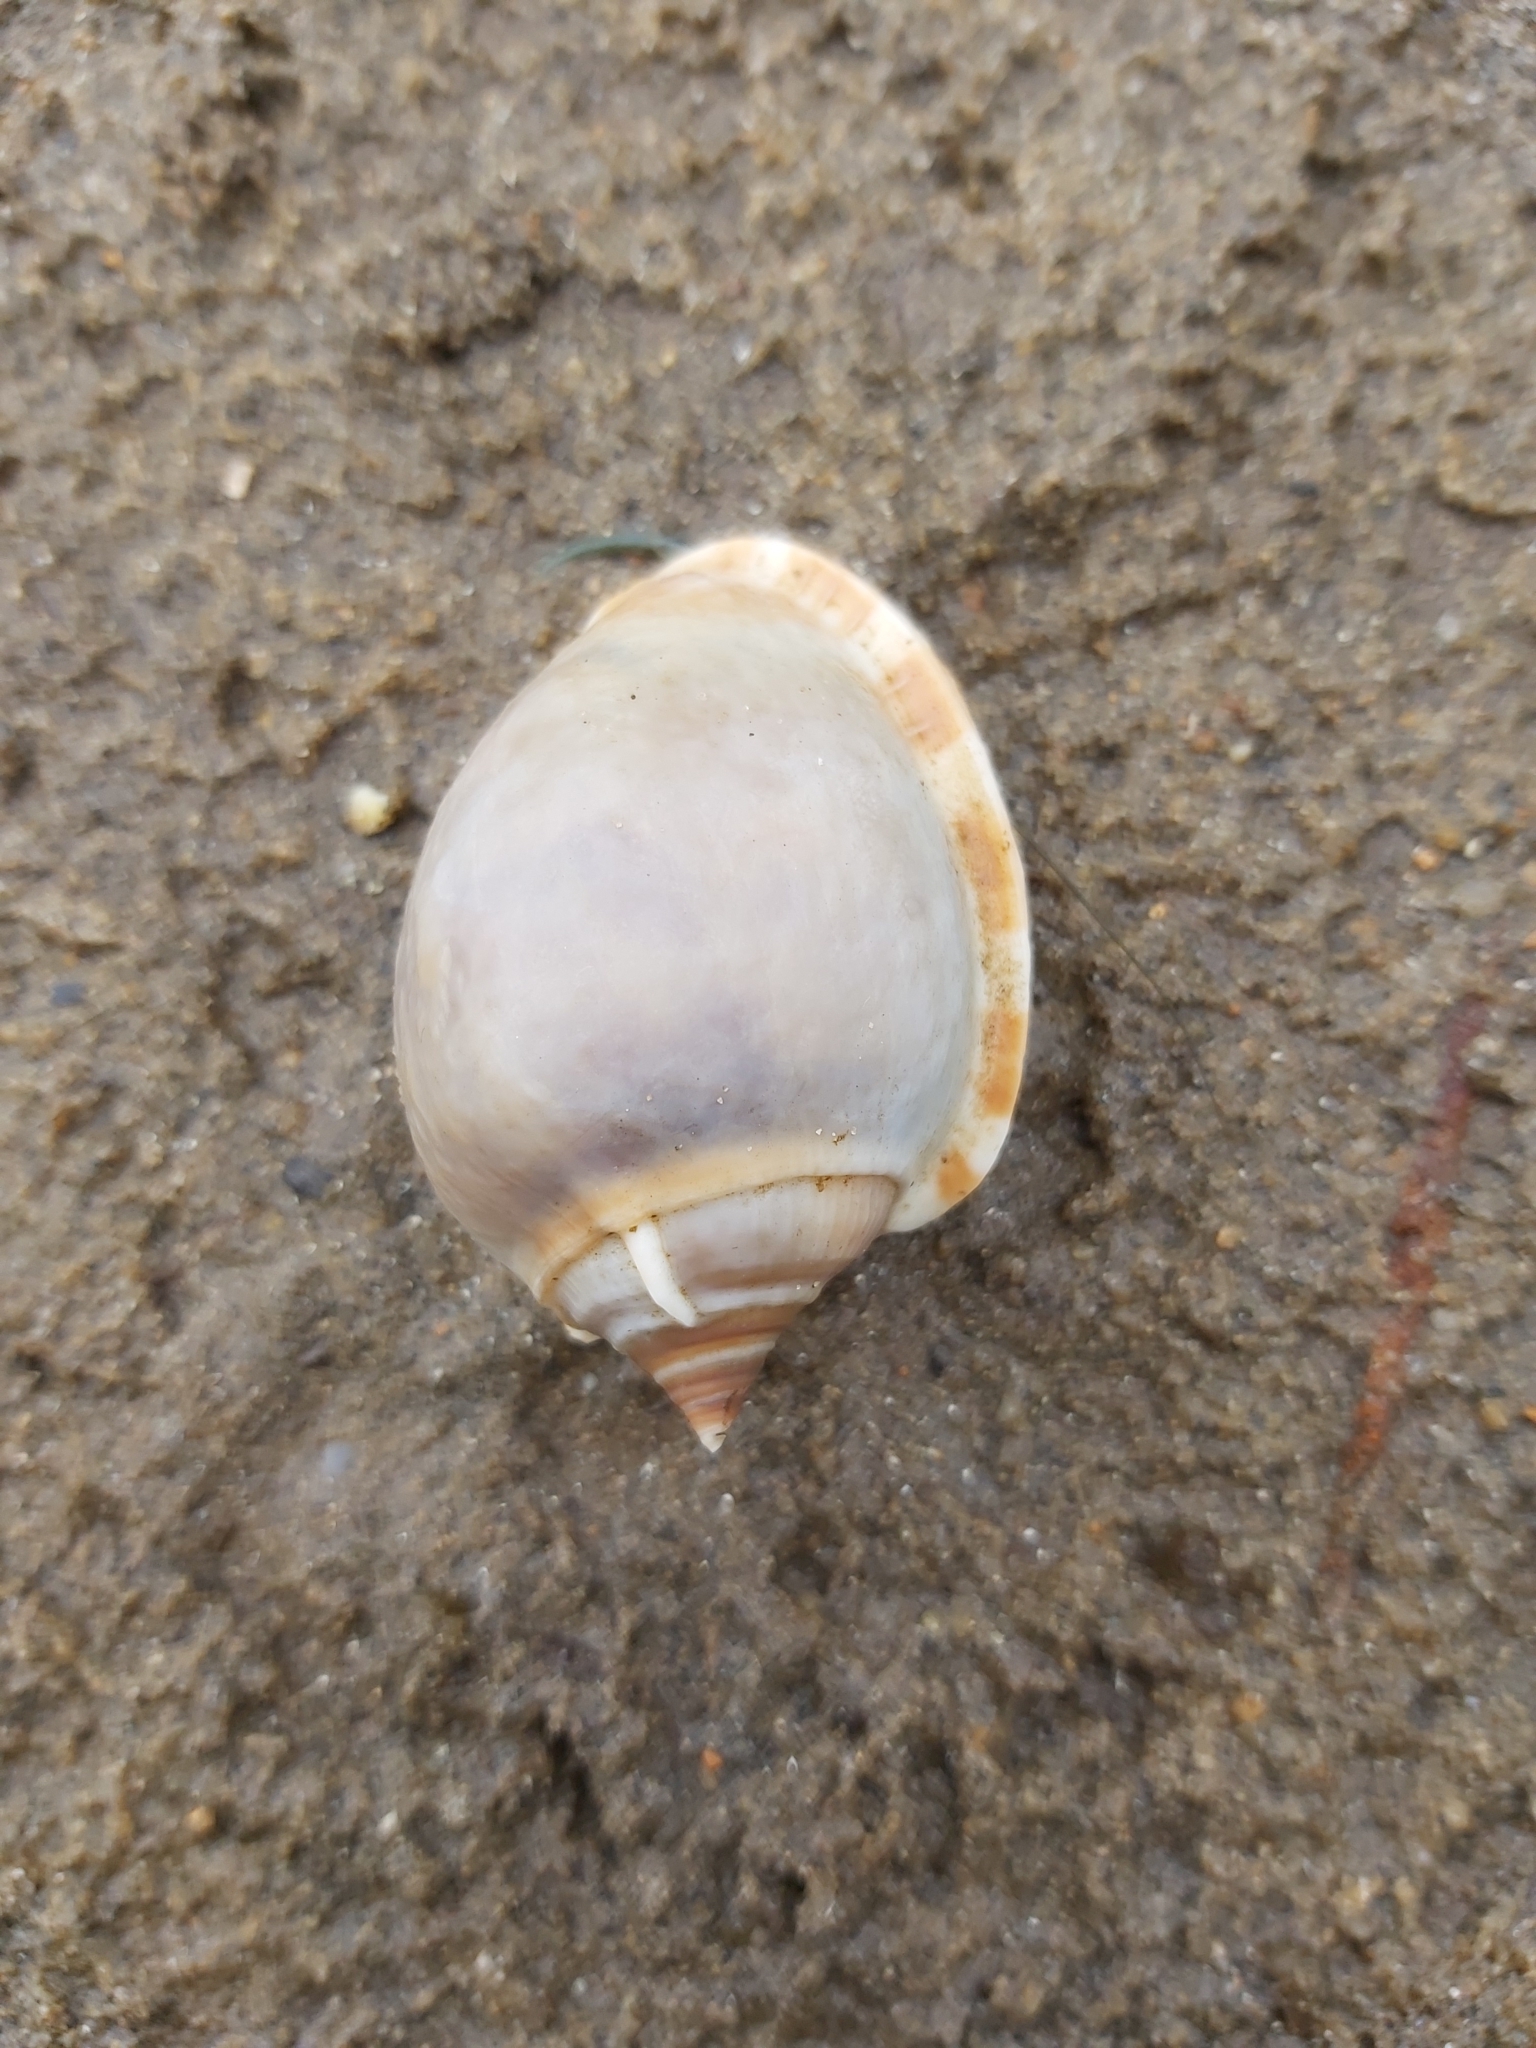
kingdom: Animalia
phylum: Arthropoda
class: Malacostraca
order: Decapoda
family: Diogenidae
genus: Clibanarius
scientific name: Clibanarius longitarsus
